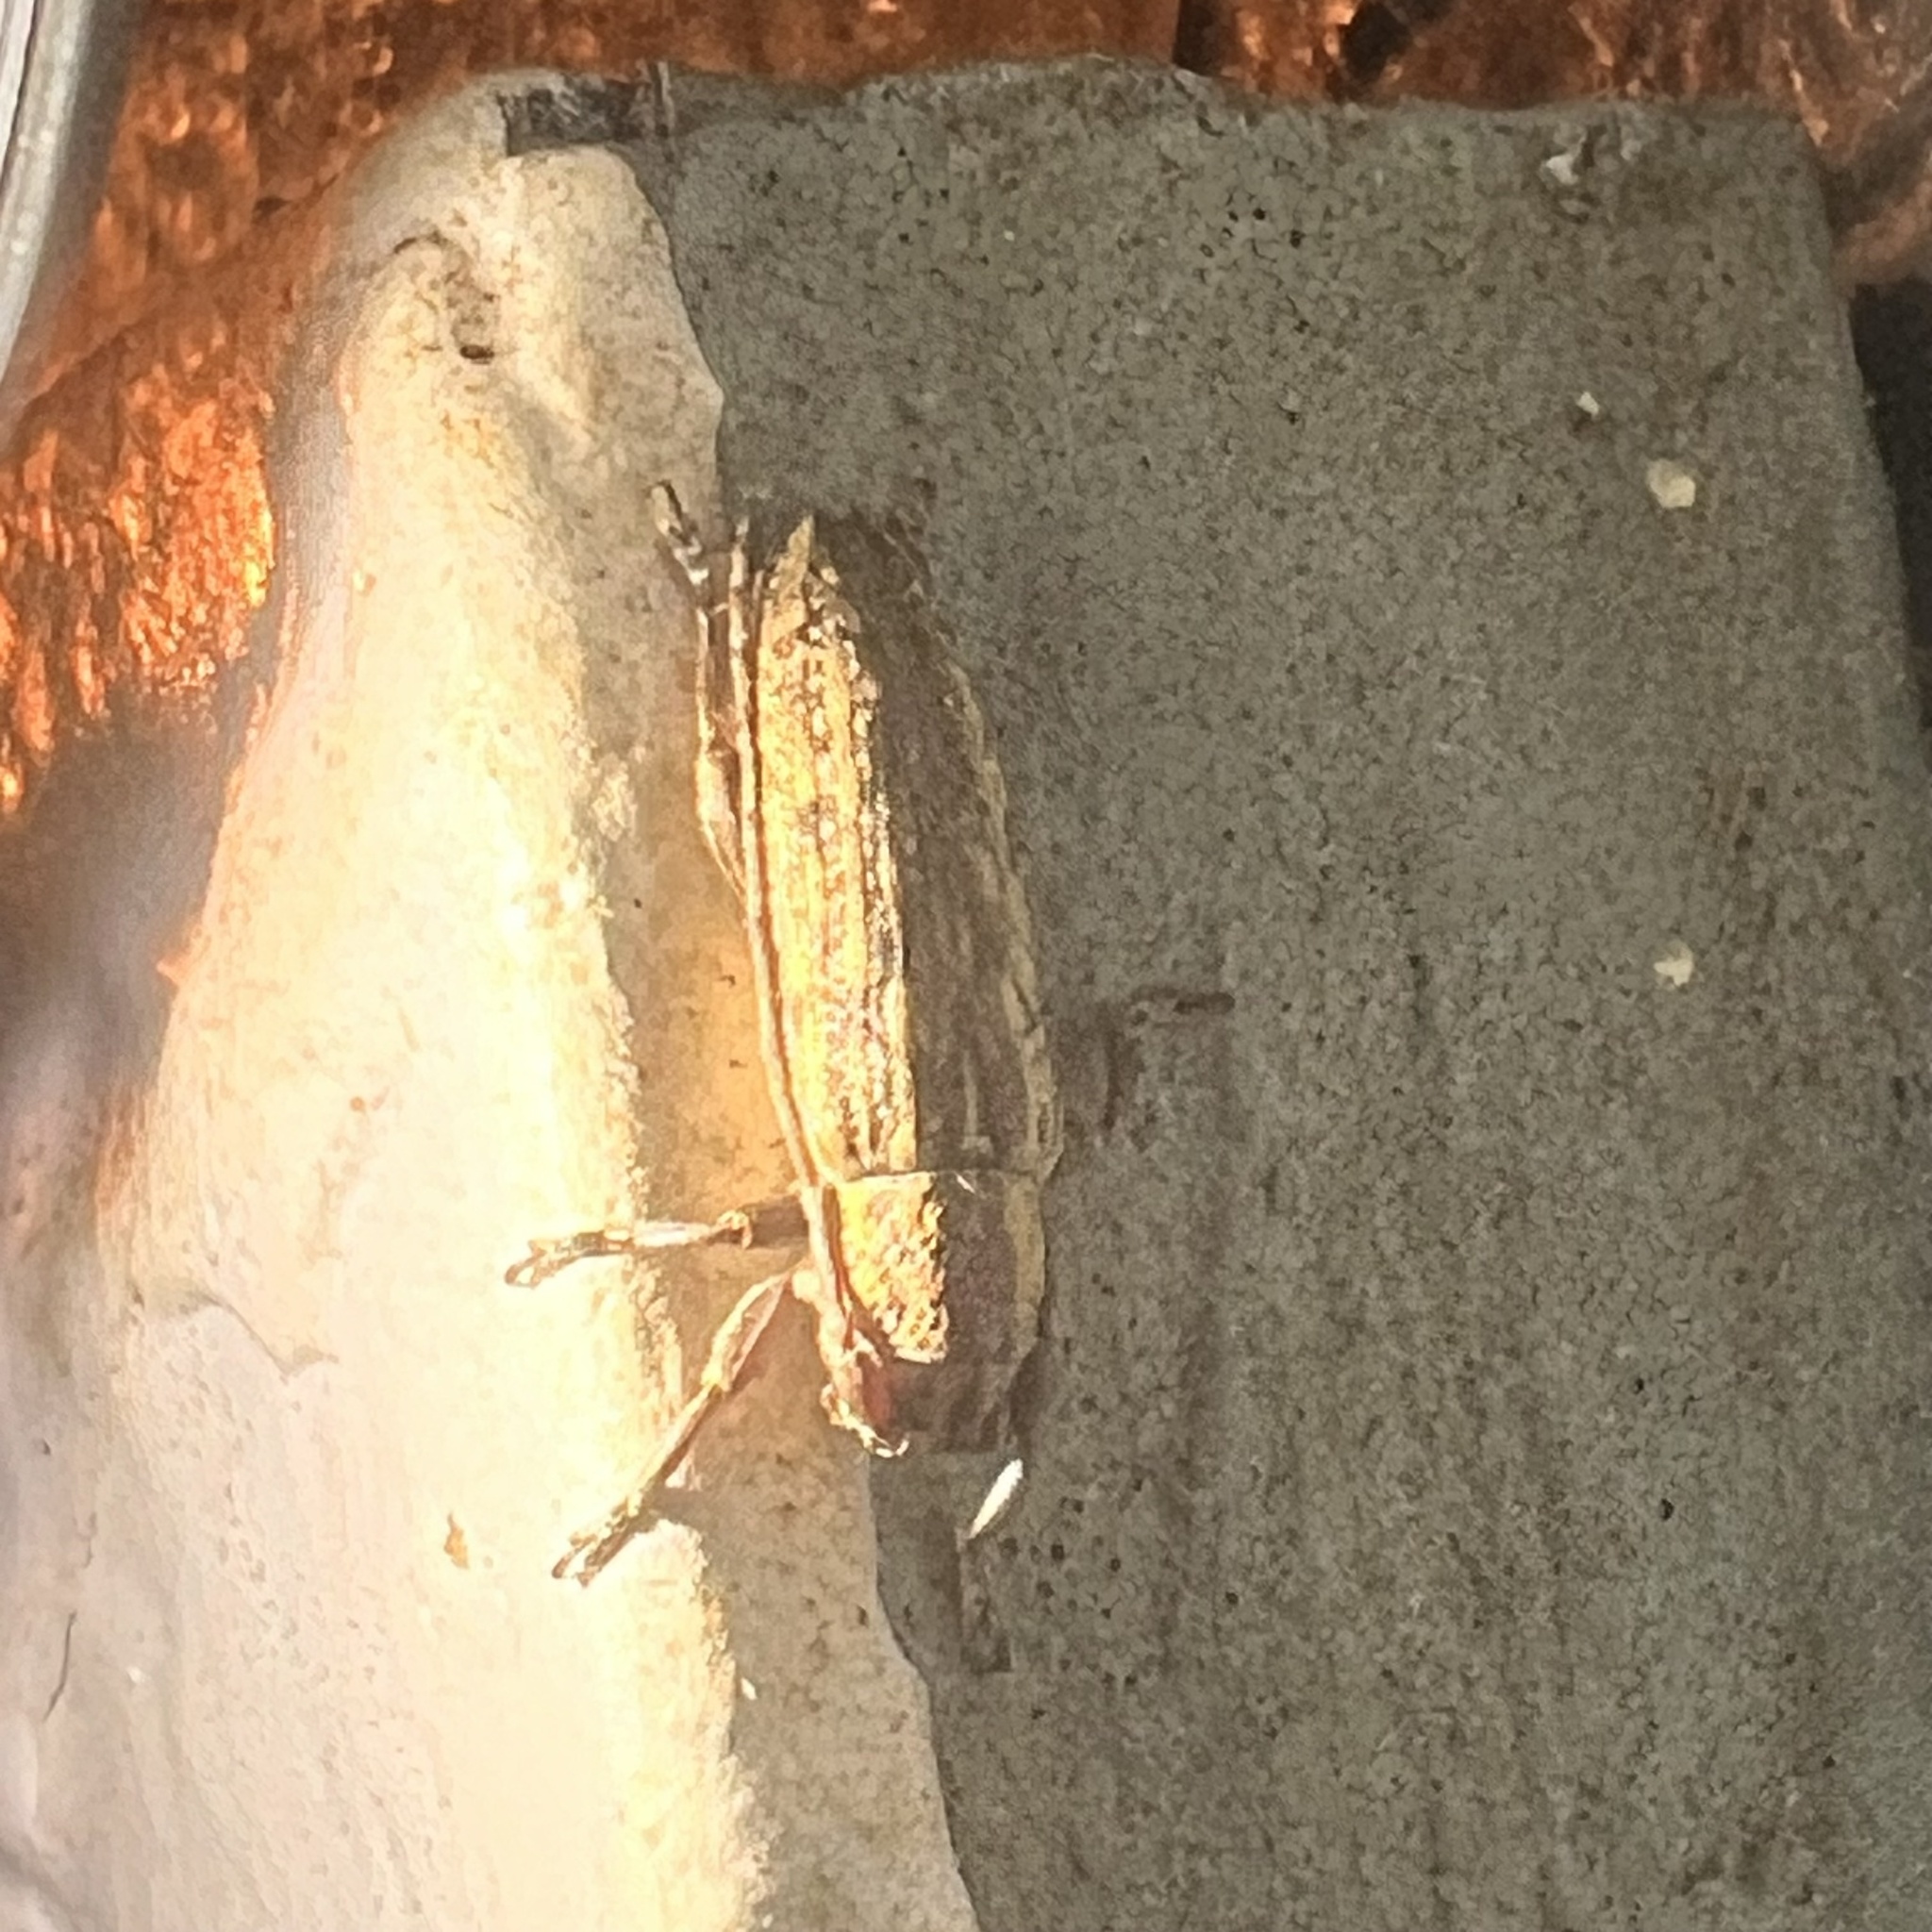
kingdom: Animalia
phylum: Arthropoda
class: Insecta
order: Coleoptera
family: Cerambycidae
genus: Mycerinopsis
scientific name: Mycerinopsis alternans
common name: Long horned beetle
